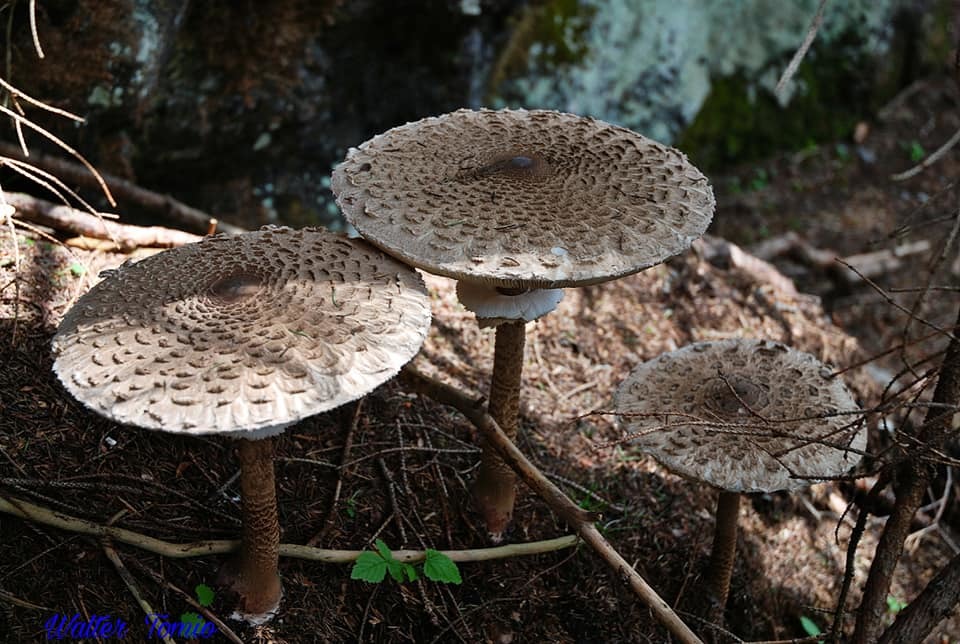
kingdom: Fungi
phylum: Basidiomycota
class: Agaricomycetes
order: Agaricales
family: Agaricaceae
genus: Macrolepiota
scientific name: Macrolepiota procera
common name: Parasol
